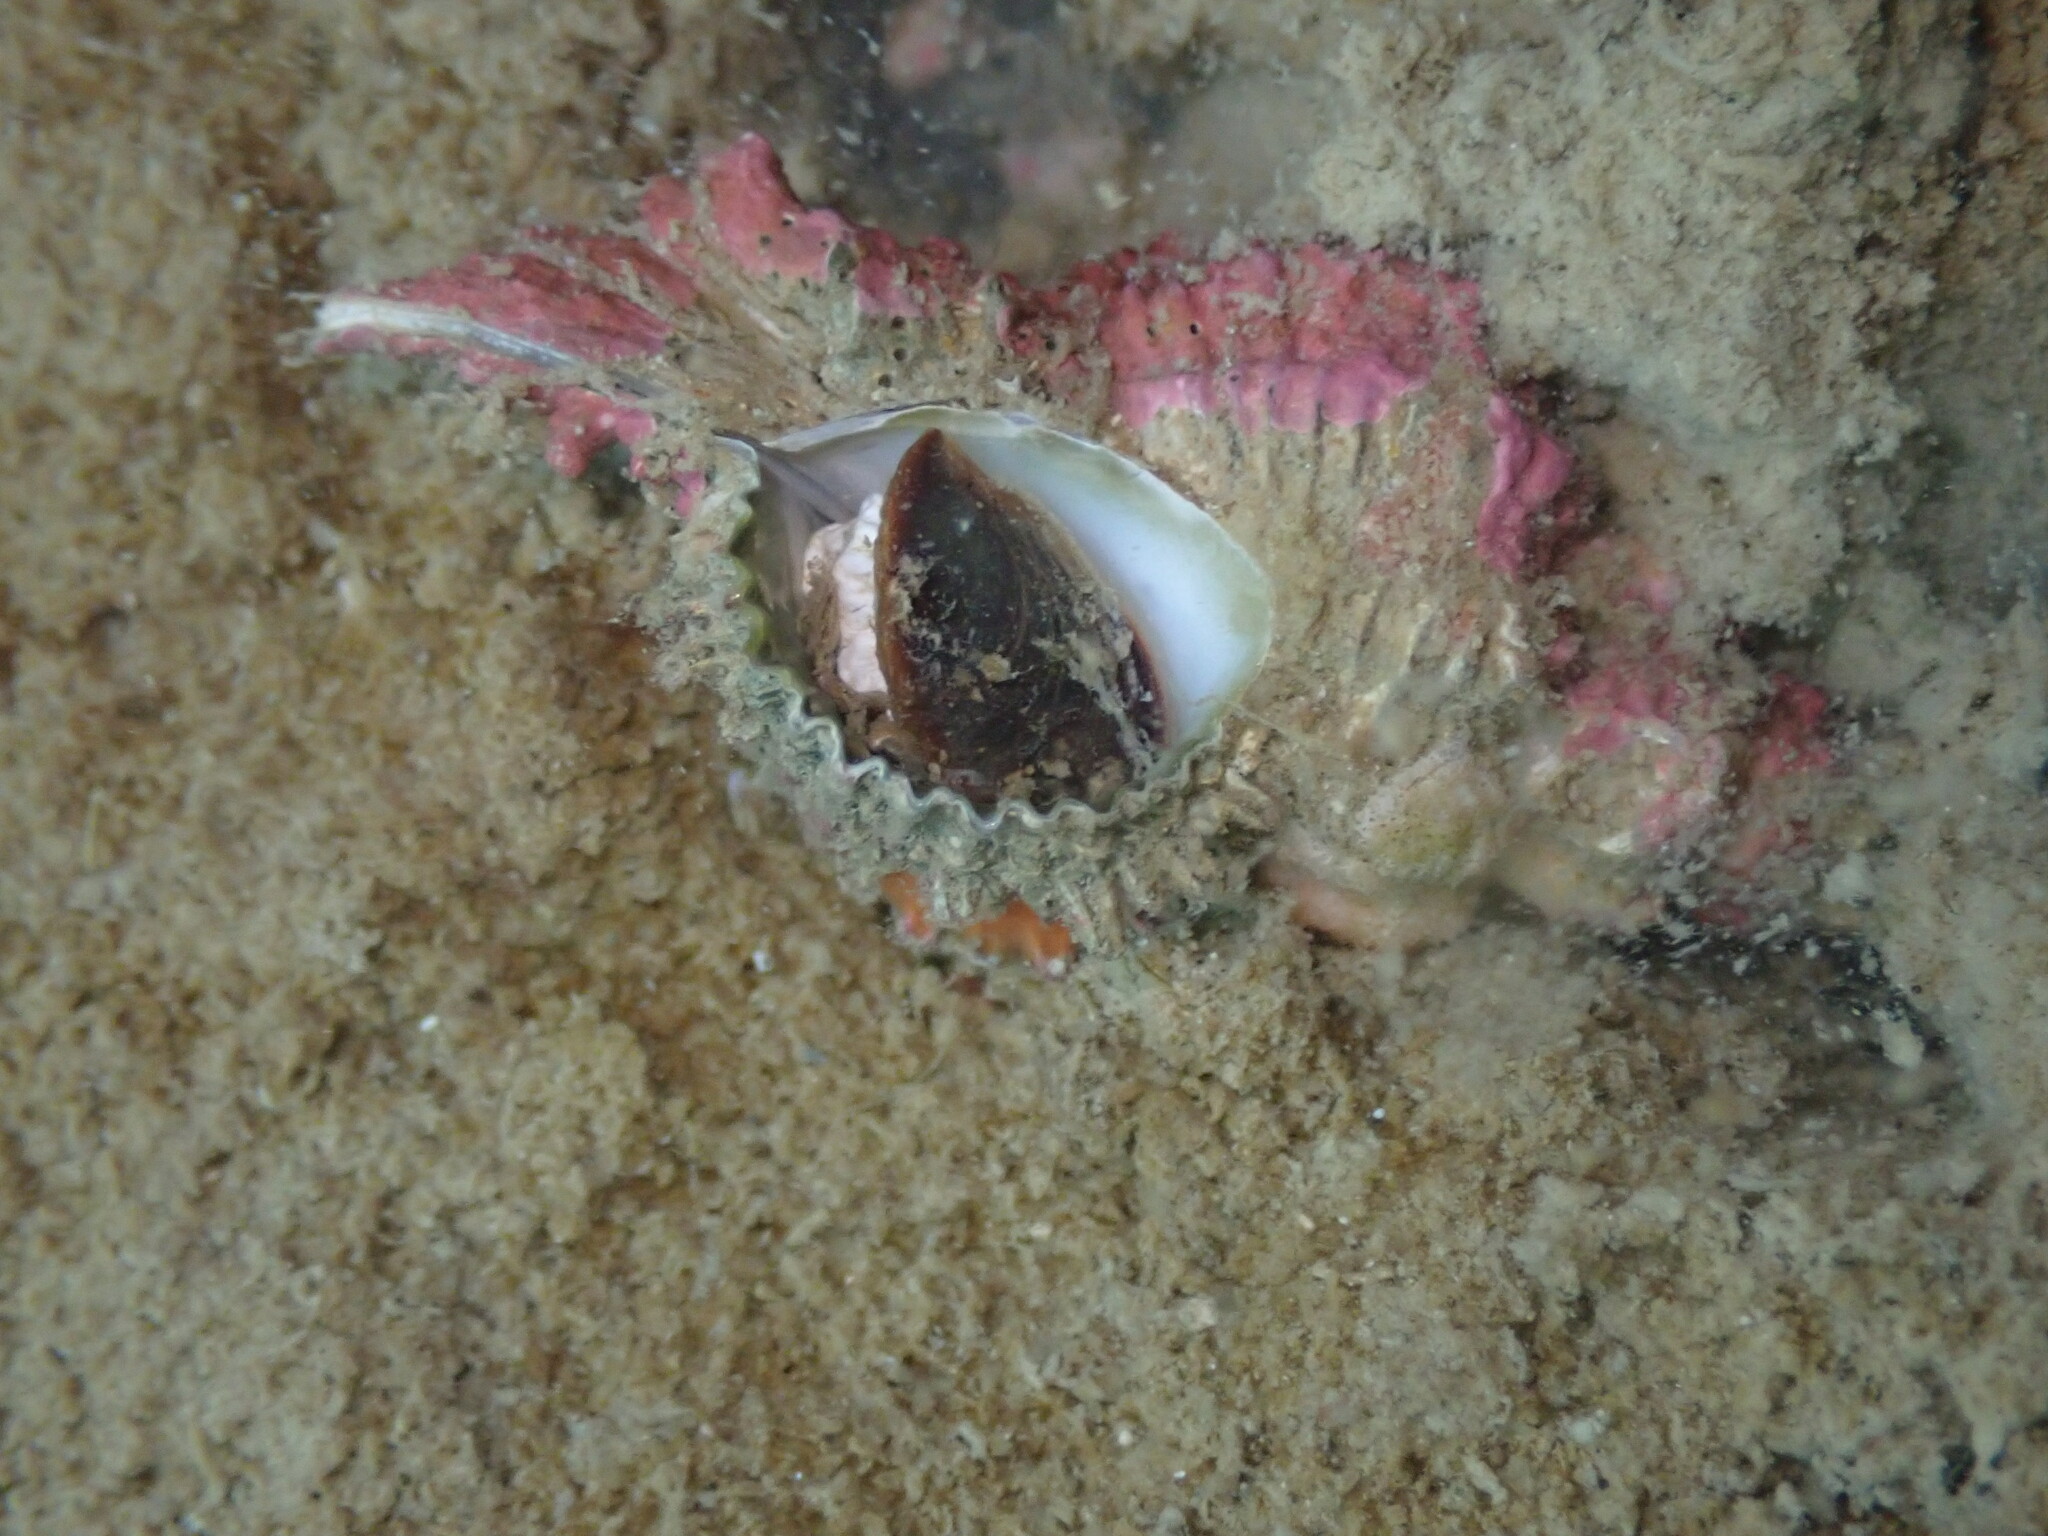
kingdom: Animalia
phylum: Mollusca
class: Gastropoda
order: Neogastropoda
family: Muricidae
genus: Murexsul
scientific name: Murexsul octogonus
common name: Octagon murex
